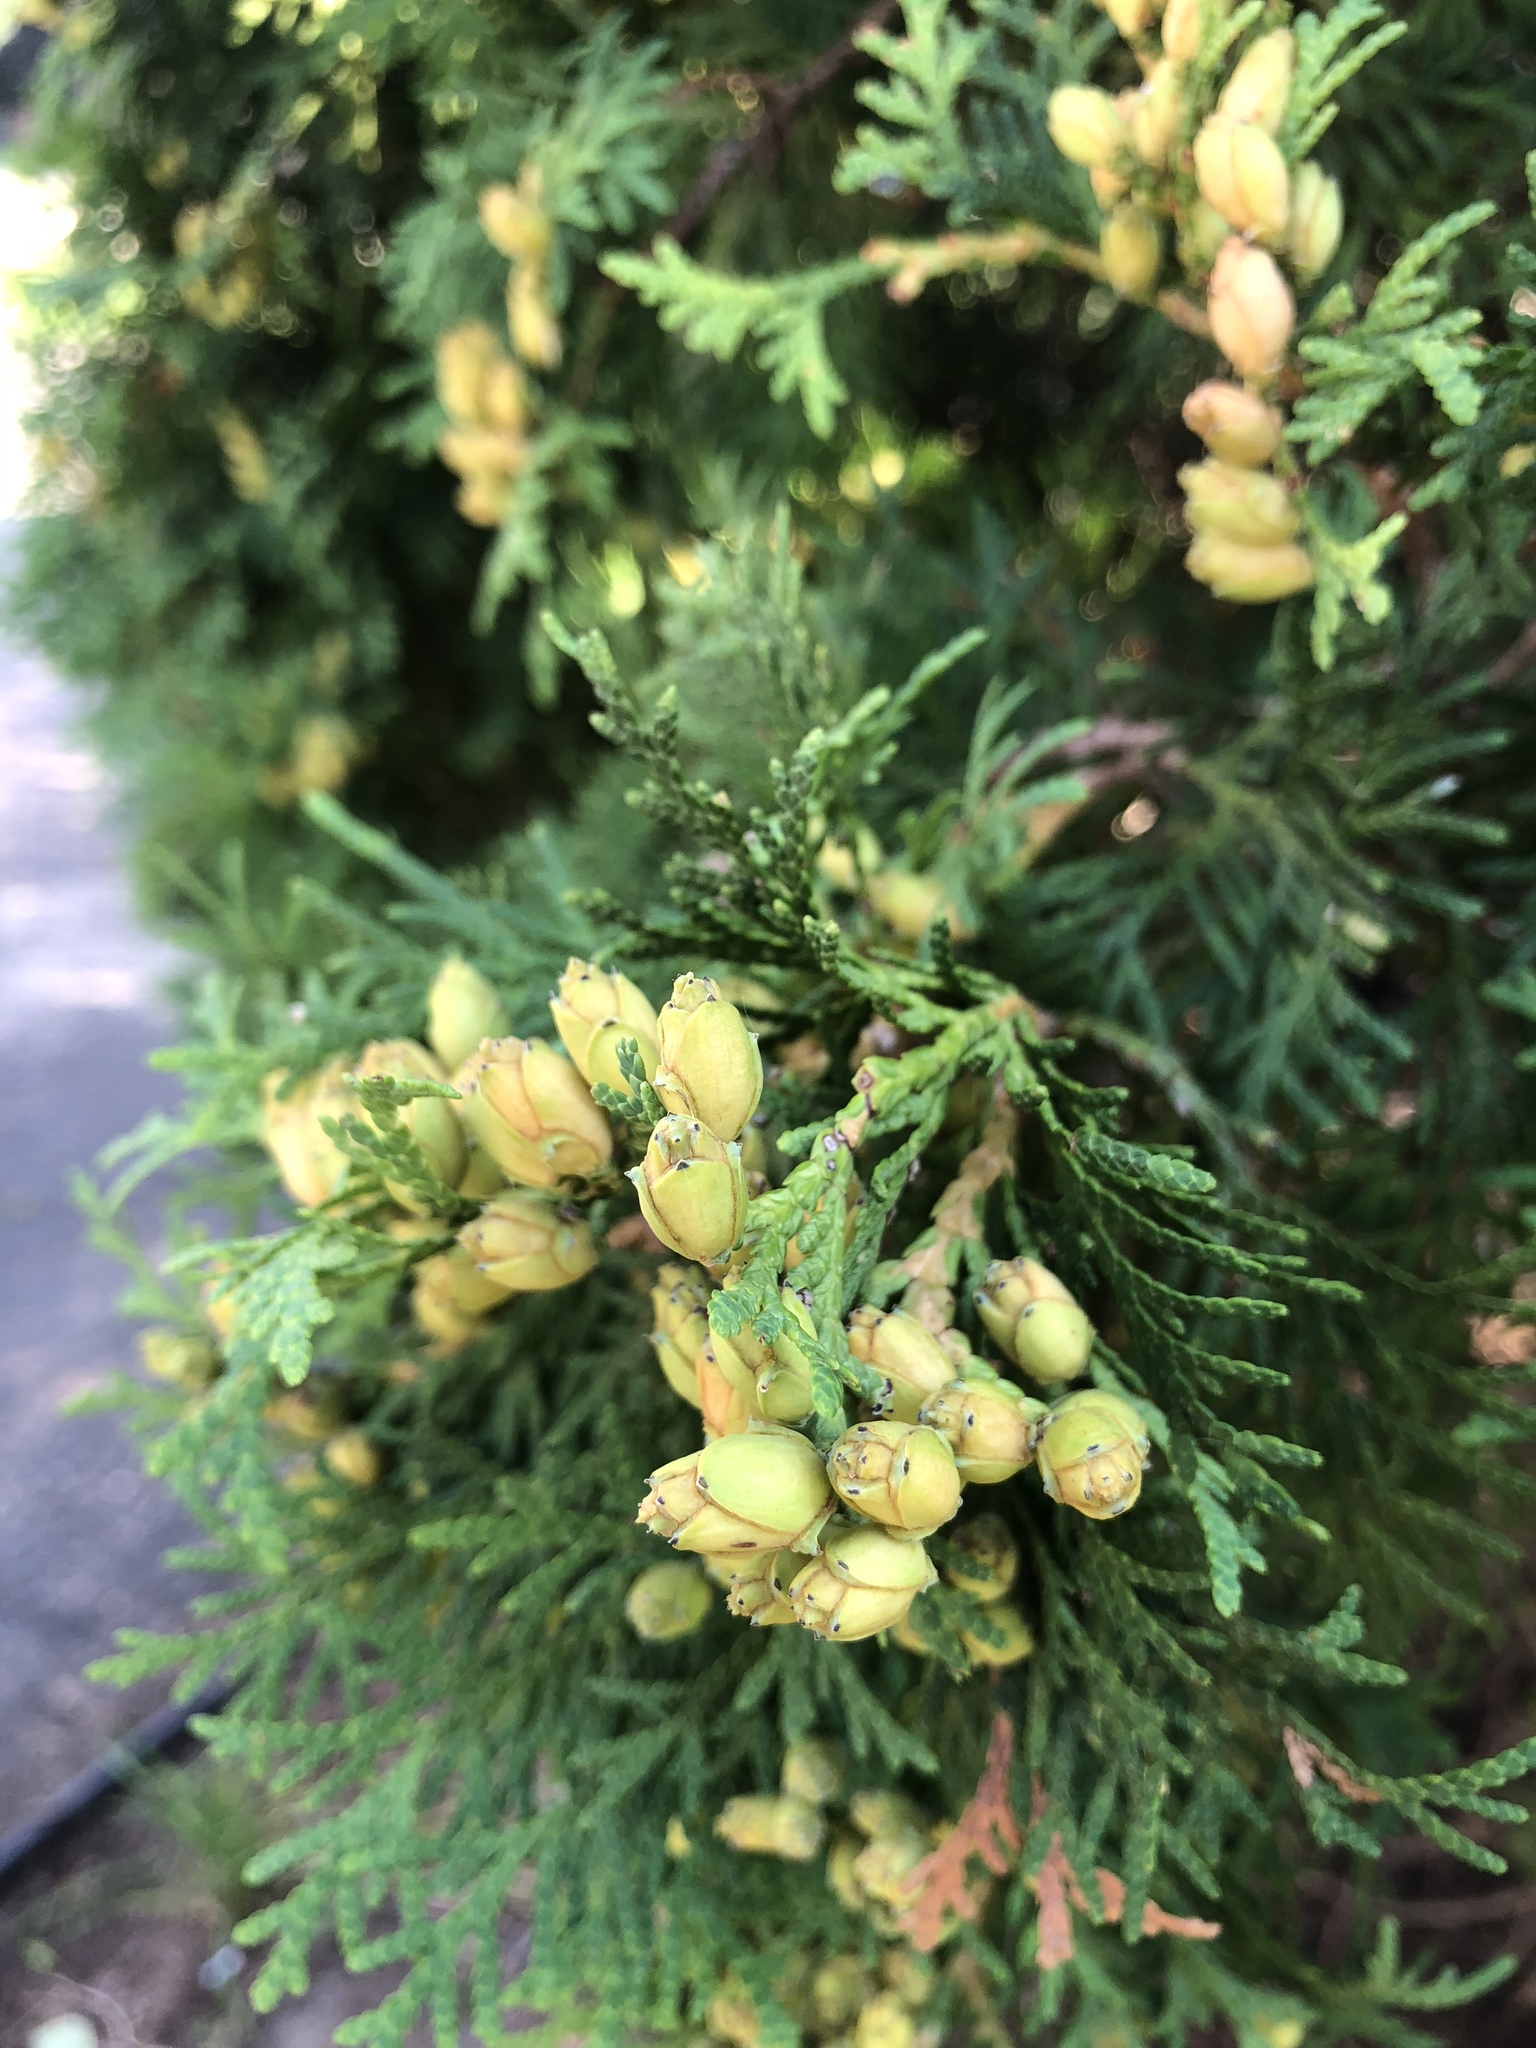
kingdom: Plantae
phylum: Tracheophyta
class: Pinopsida
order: Pinales
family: Cupressaceae
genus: Thuja
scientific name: Thuja occidentalis
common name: Northern white-cedar
